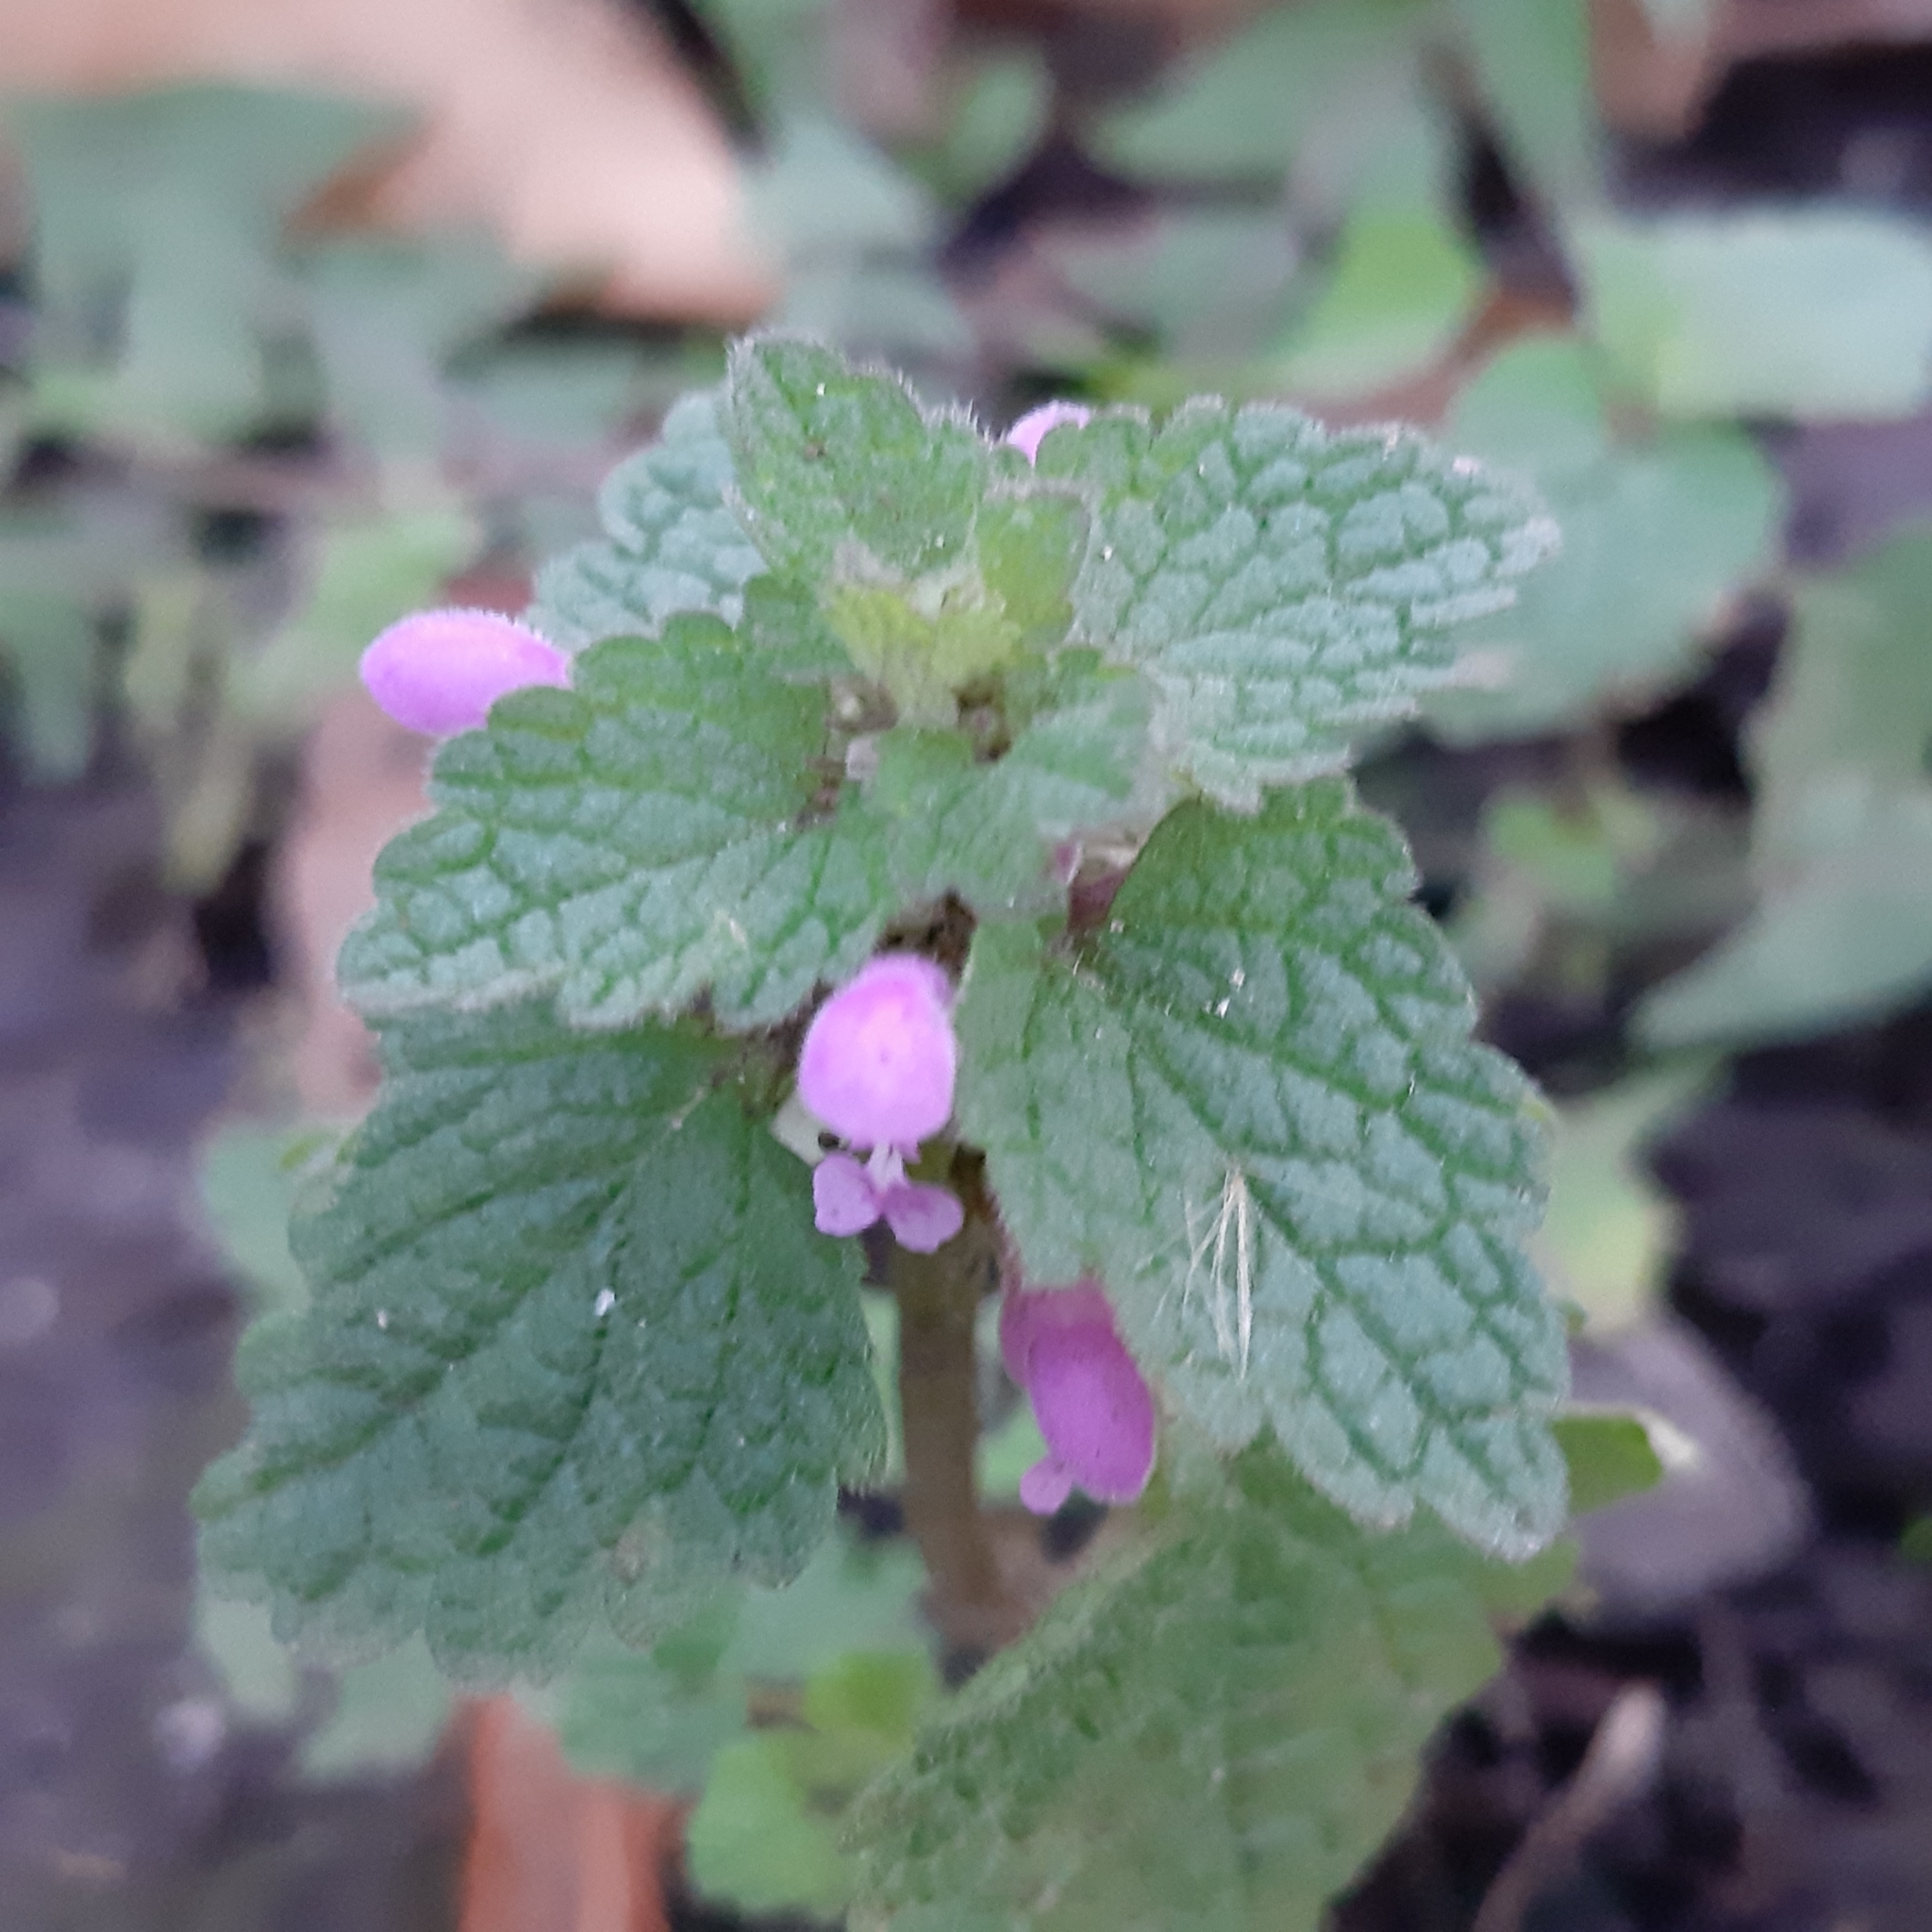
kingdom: Plantae
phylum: Tracheophyta
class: Magnoliopsida
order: Lamiales
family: Lamiaceae
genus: Lamium
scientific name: Lamium purpureum
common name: Red dead-nettle
